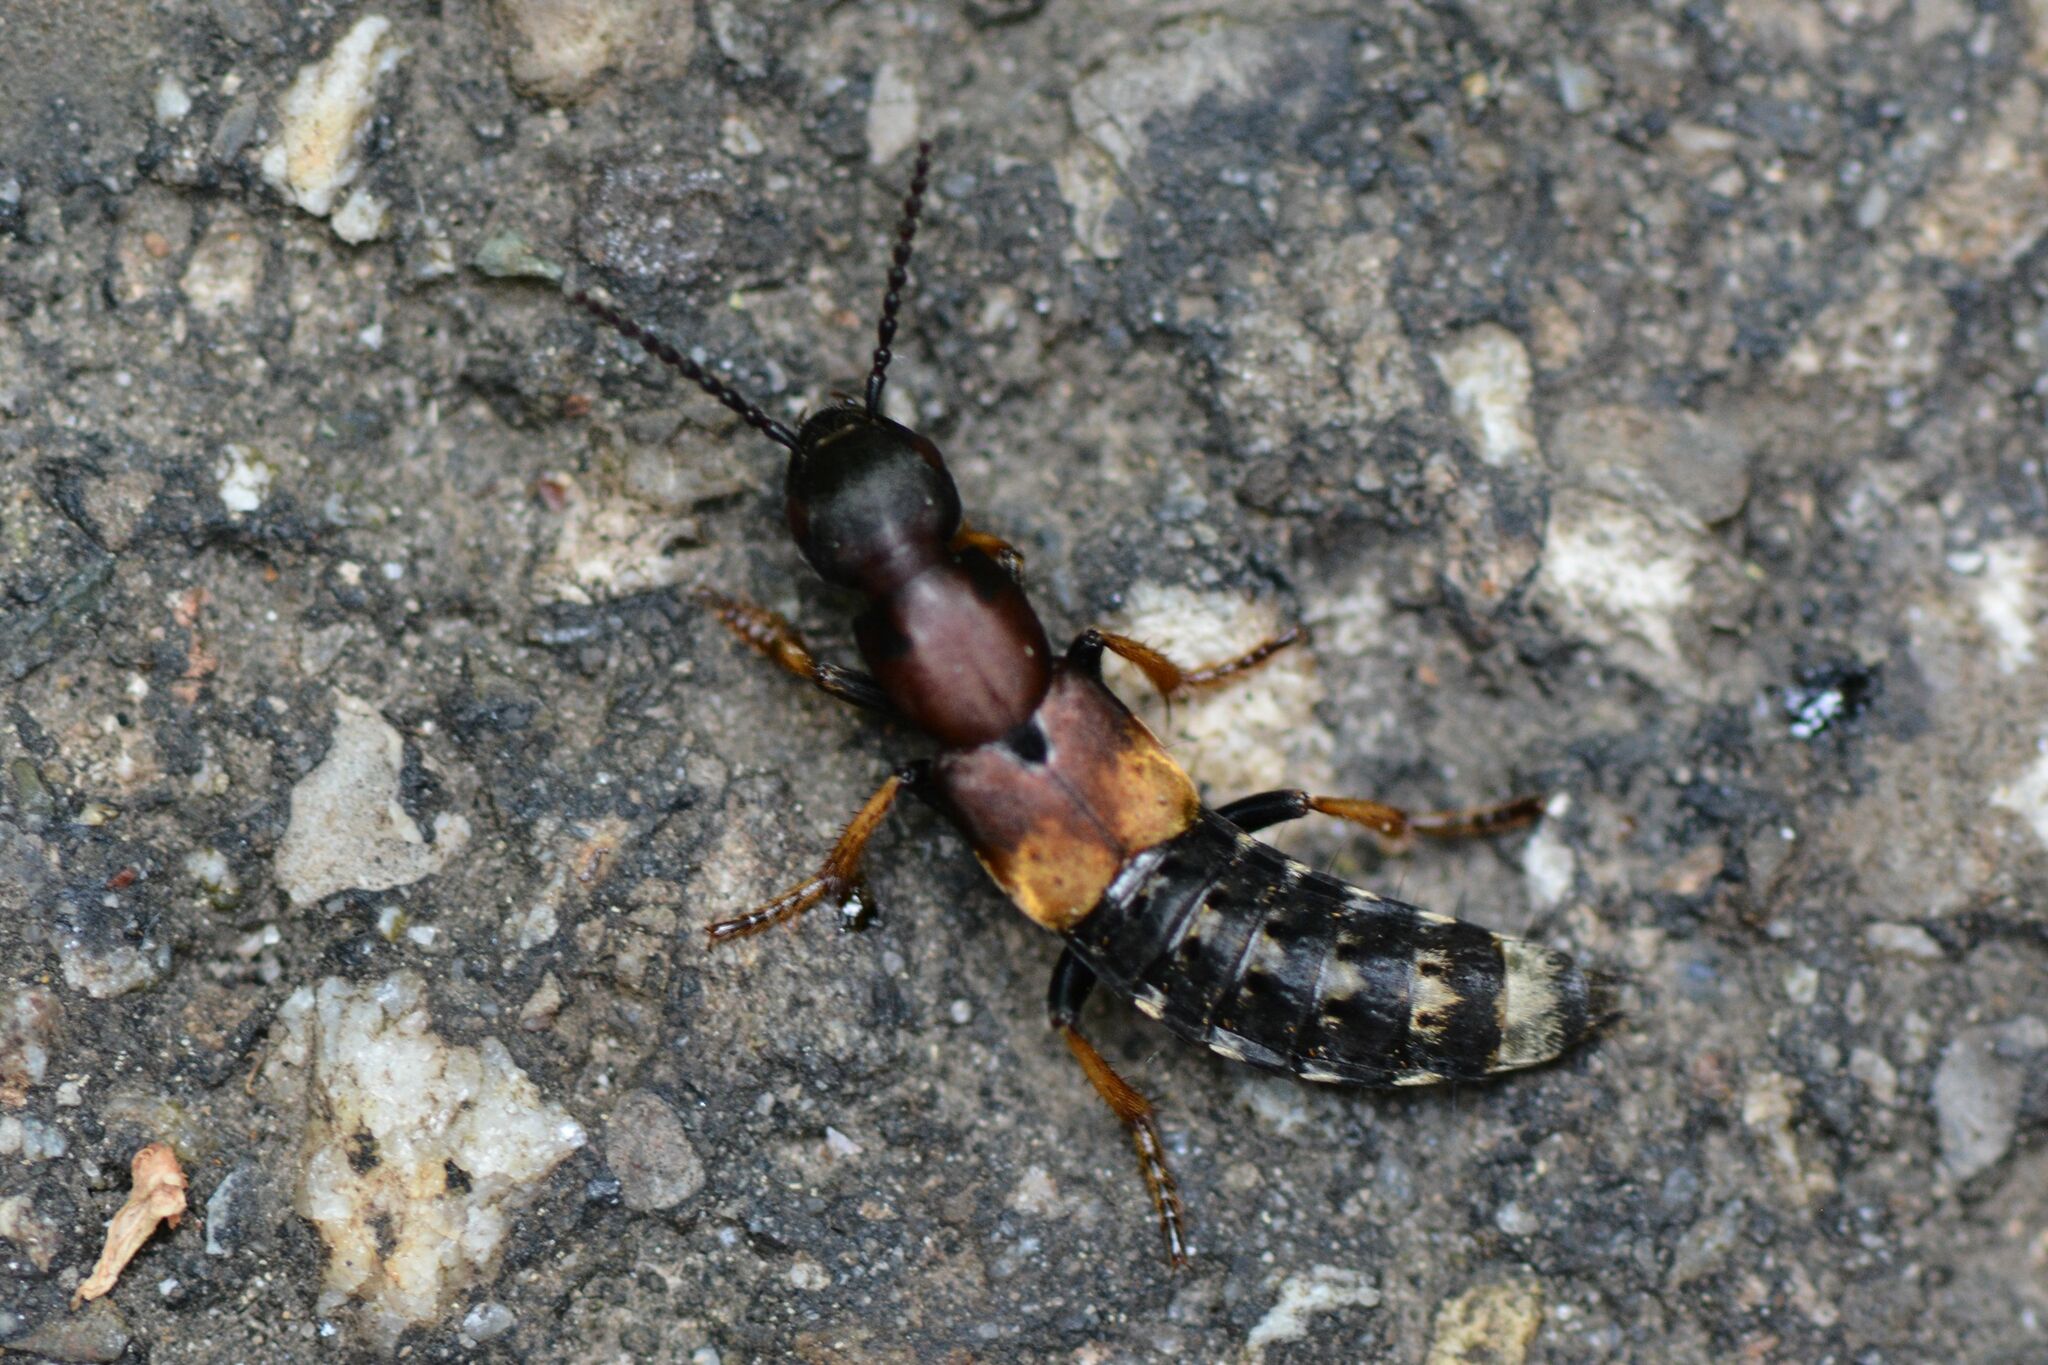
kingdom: Animalia
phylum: Arthropoda
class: Insecta
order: Coleoptera
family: Staphylinidae
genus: Dinothenarus
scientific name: Dinothenarus fossor
